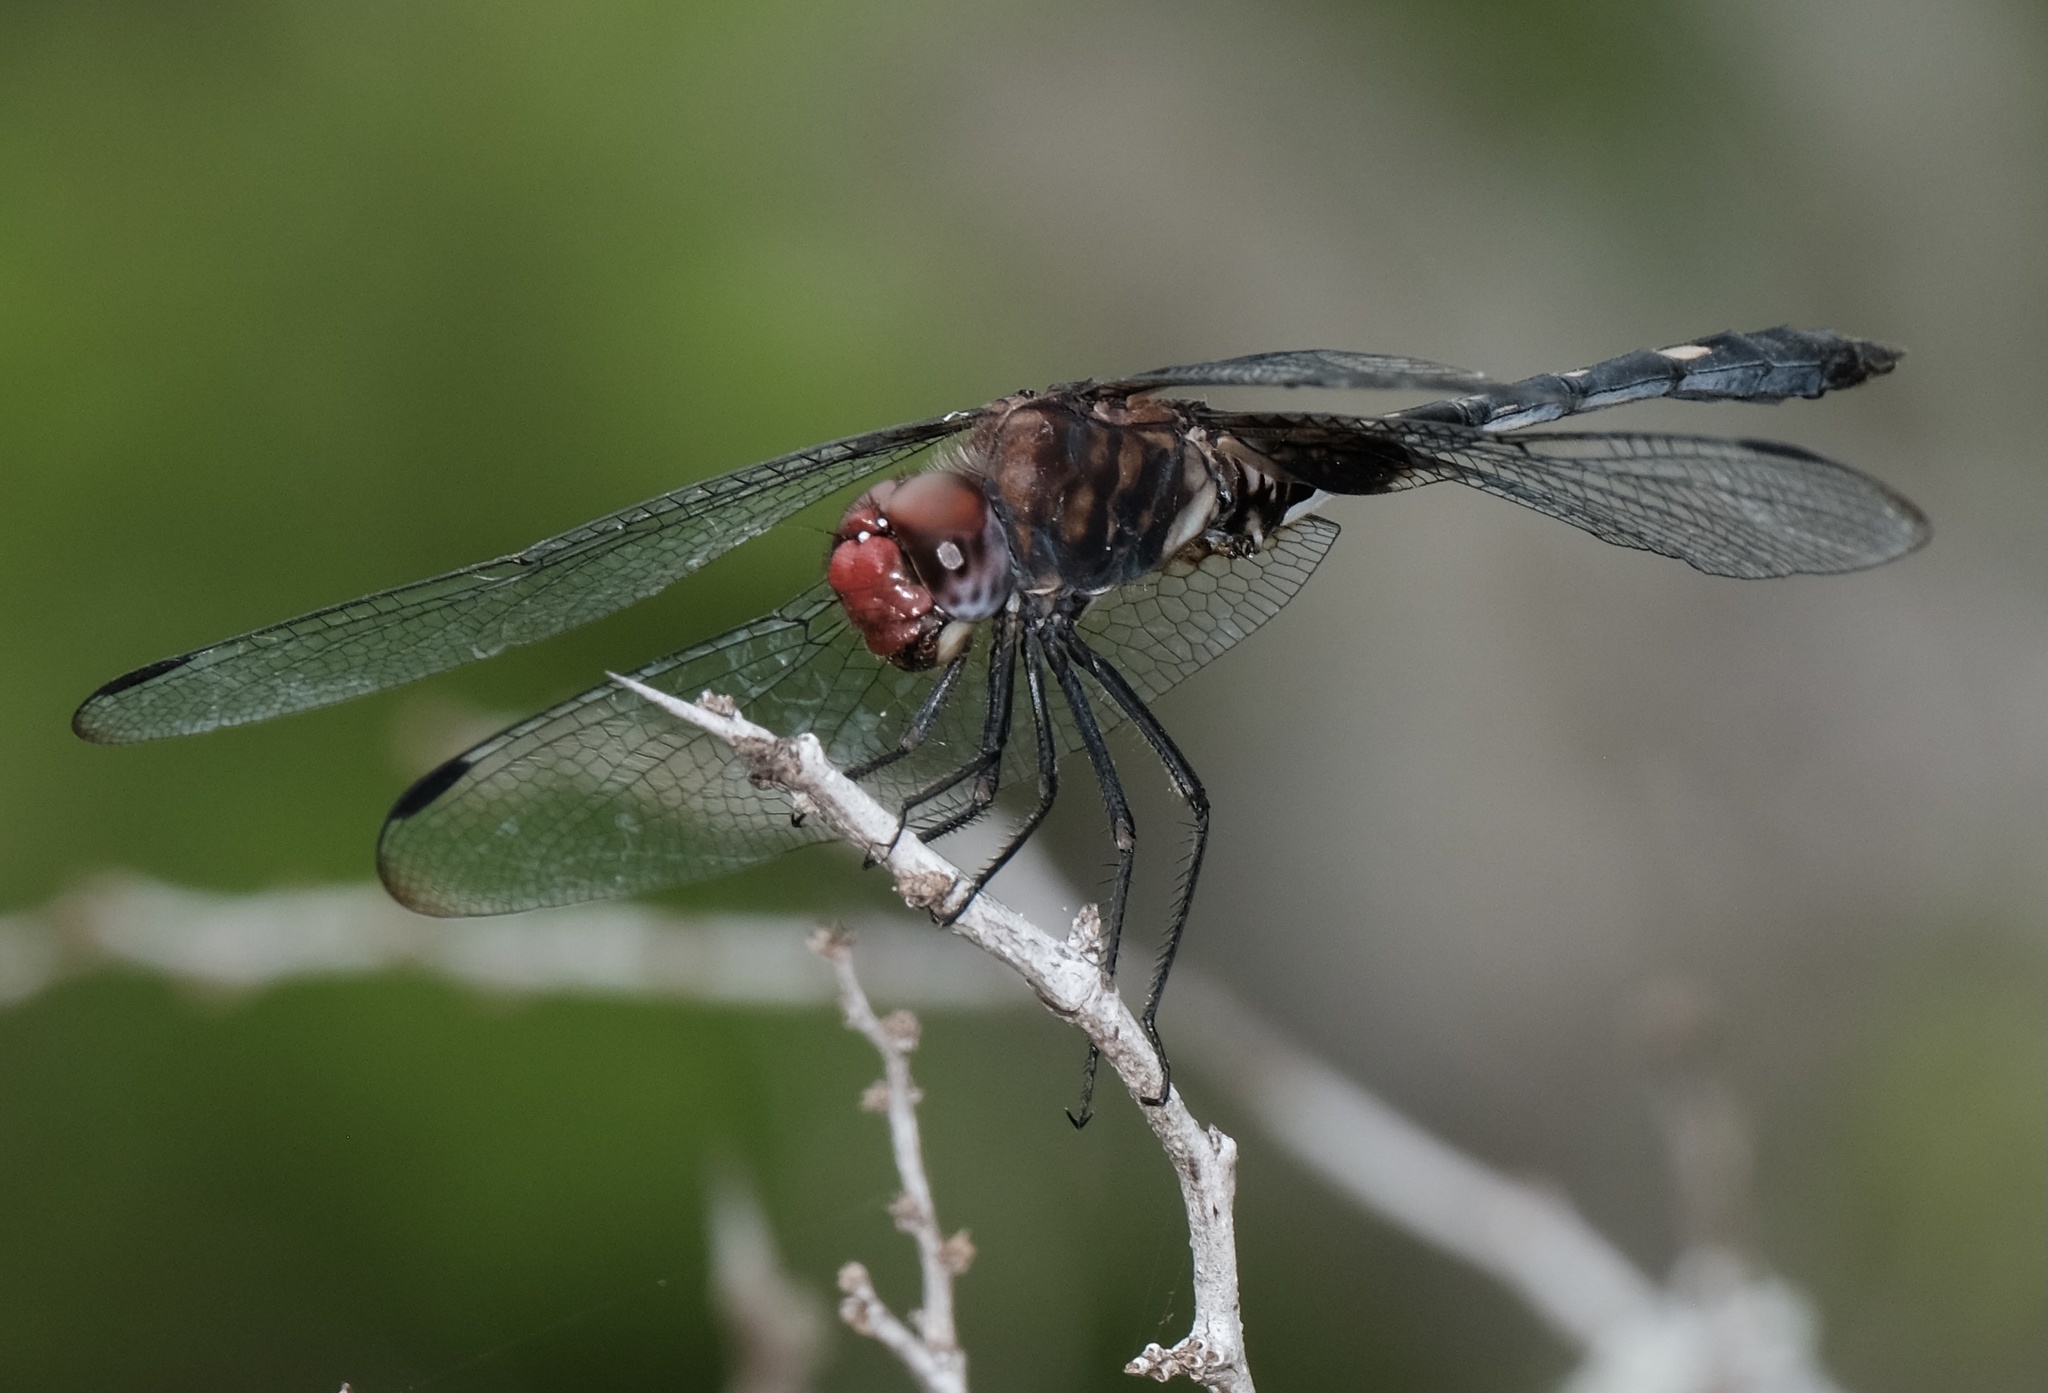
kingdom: Animalia
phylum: Arthropoda
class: Insecta
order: Odonata
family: Libellulidae
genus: Dythemis
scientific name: Dythemis fugax
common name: Checkered setwing
